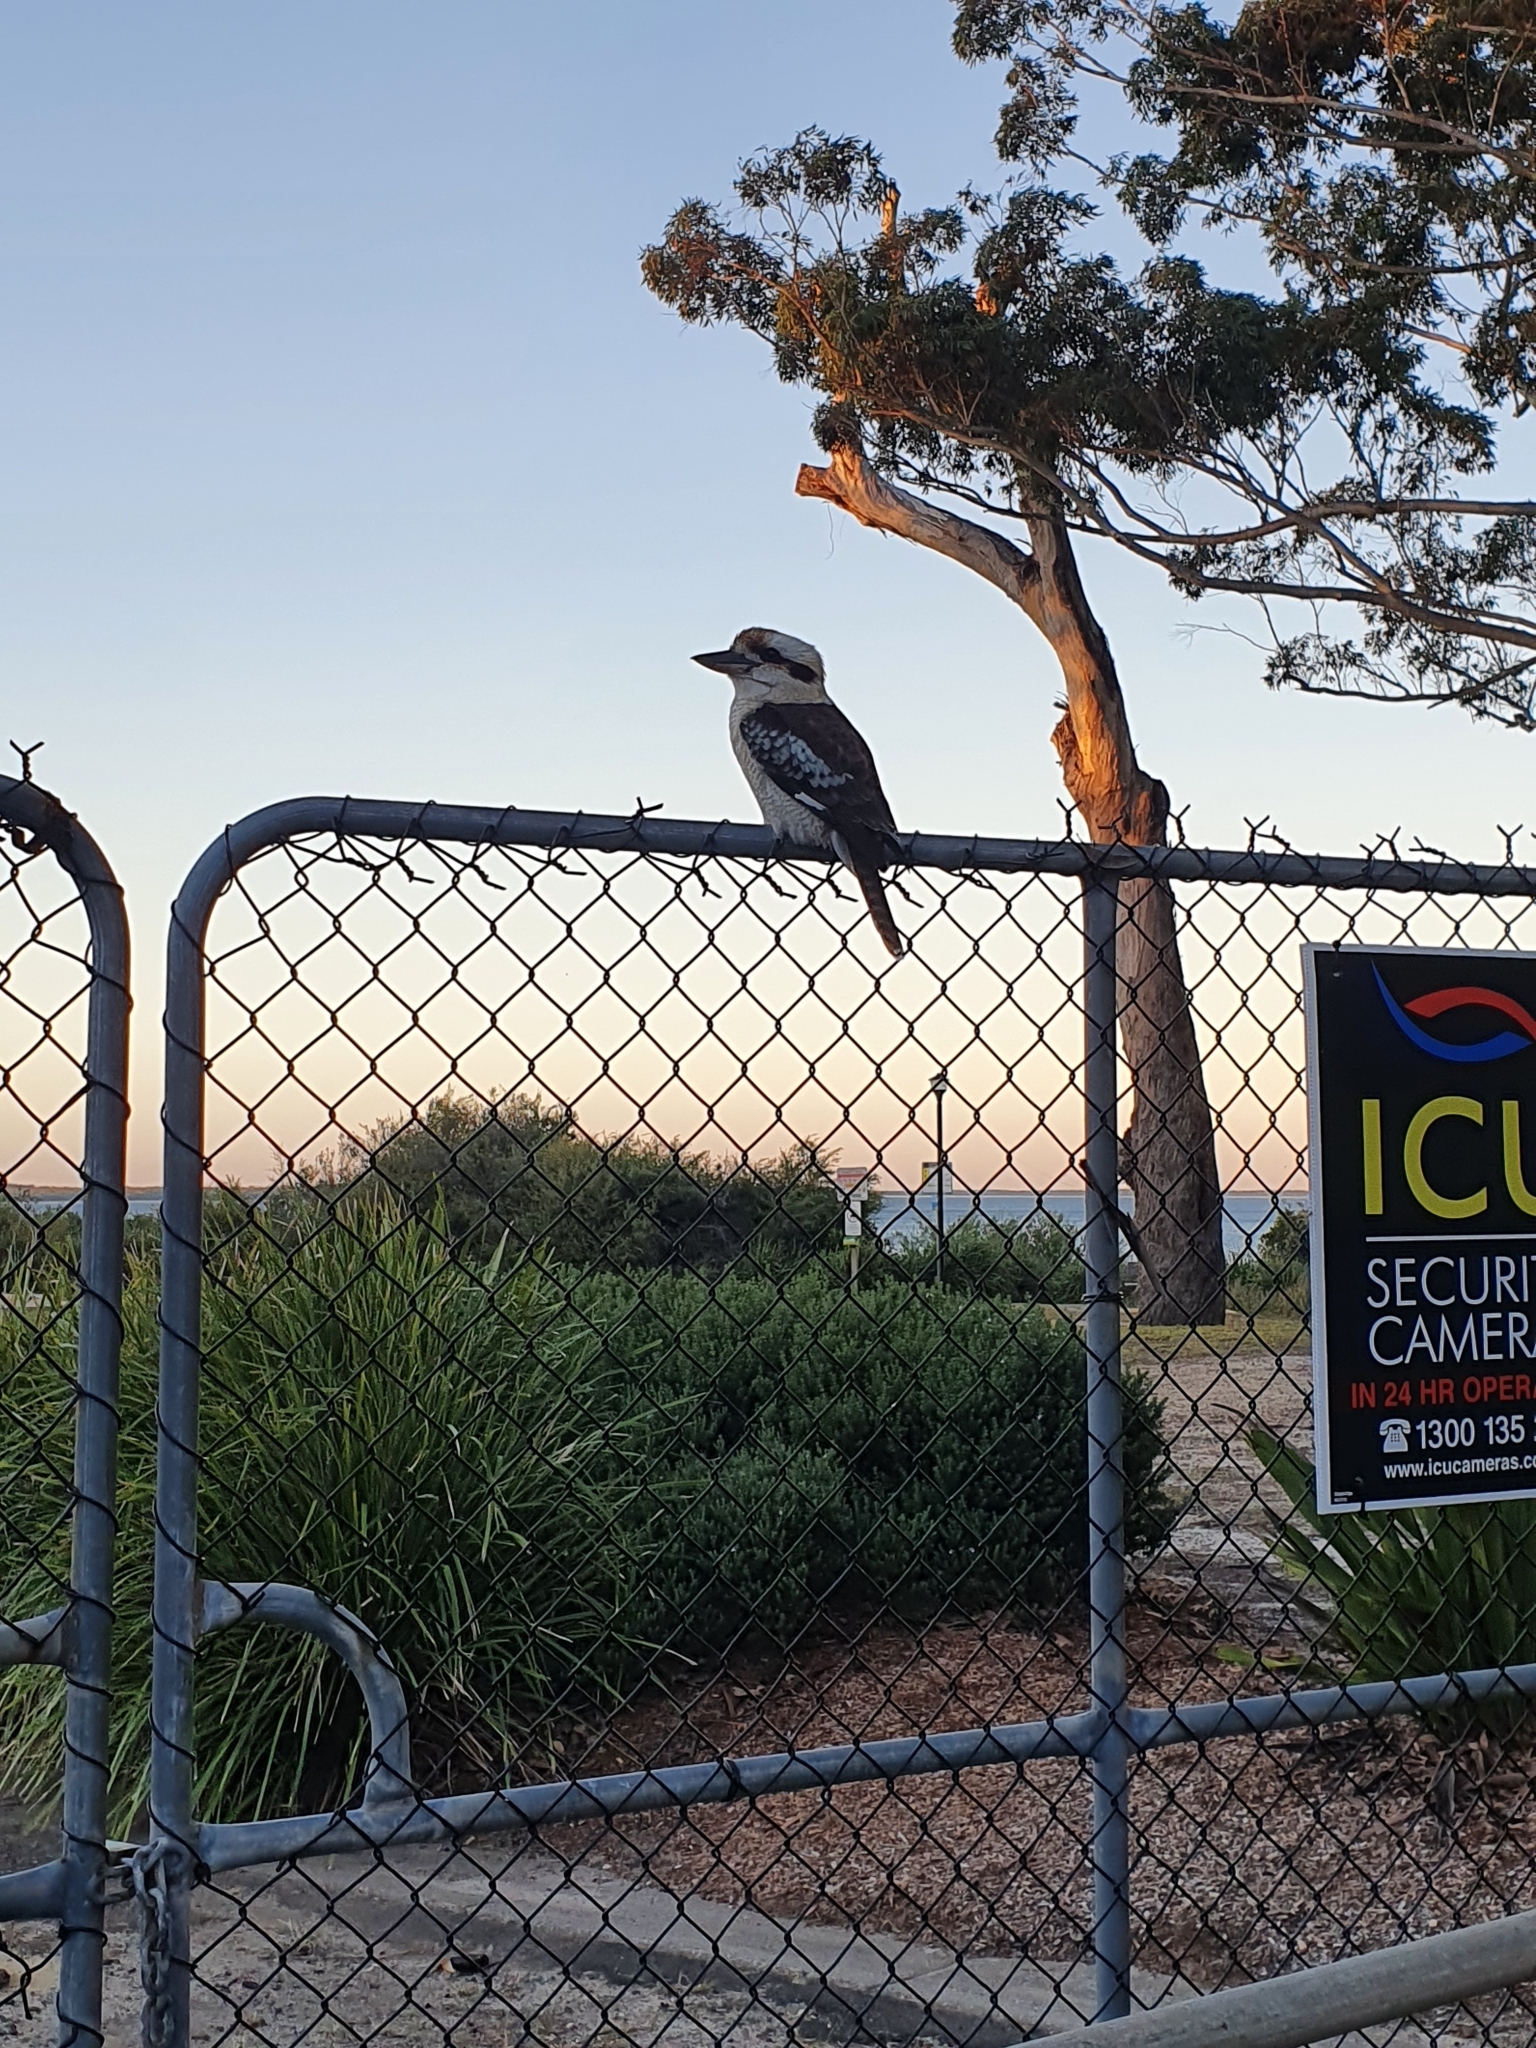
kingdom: Animalia
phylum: Chordata
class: Aves
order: Coraciiformes
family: Alcedinidae
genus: Dacelo
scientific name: Dacelo novaeguineae
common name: Laughing kookaburra
